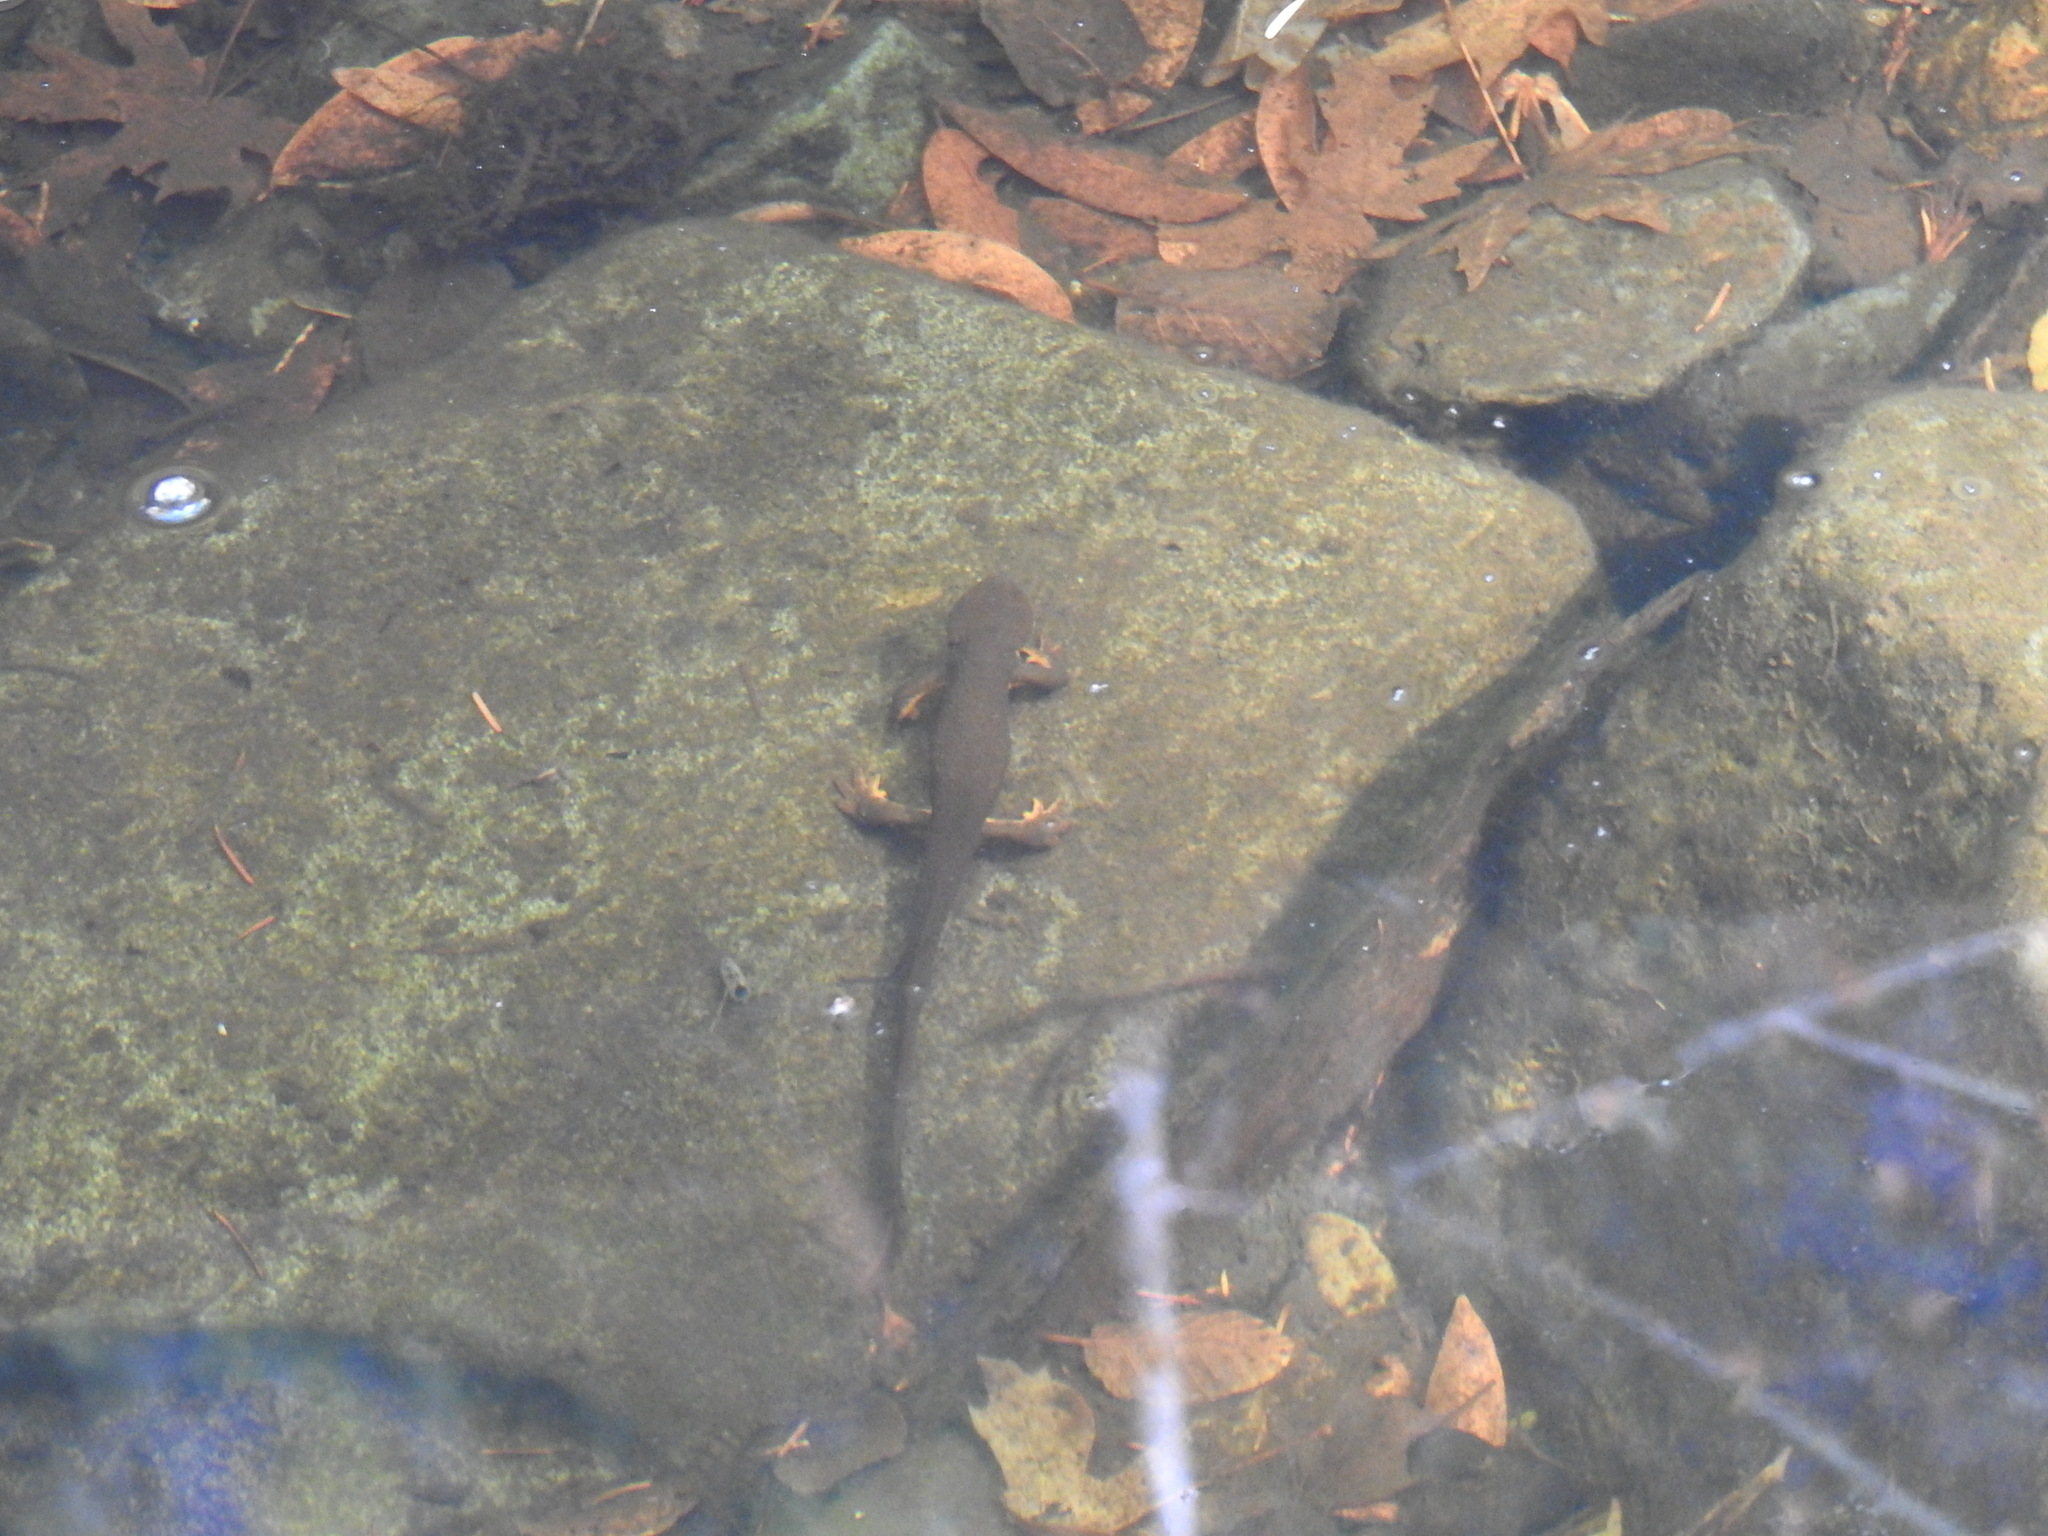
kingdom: Animalia
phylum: Chordata
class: Amphibia
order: Caudata
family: Salamandridae
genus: Taricha
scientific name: Taricha granulosa
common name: Roughskin newt
